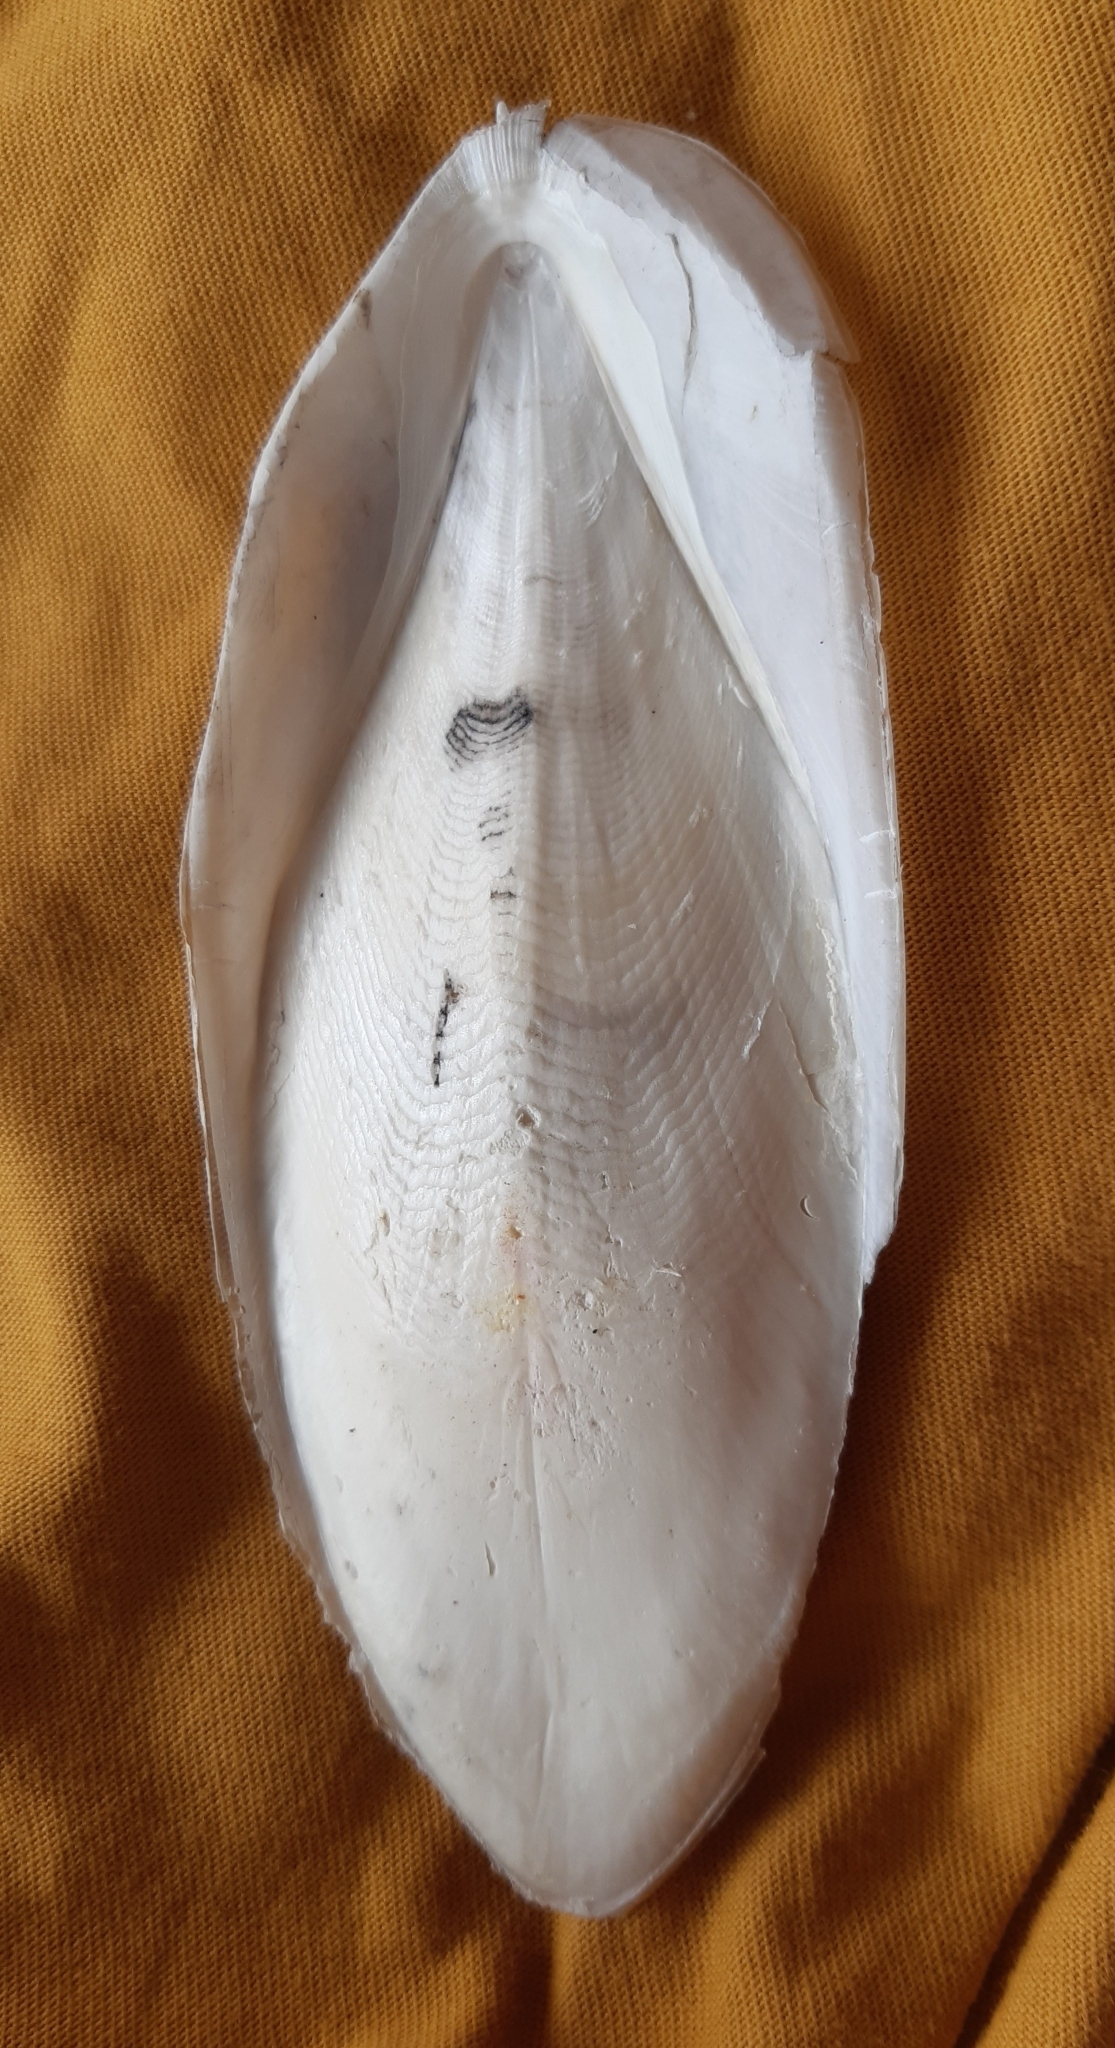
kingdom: Animalia
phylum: Mollusca
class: Cephalopoda
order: Sepiida
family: Sepiidae
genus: Sepia
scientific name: Sepia officinalis
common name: Common cuttlefish
